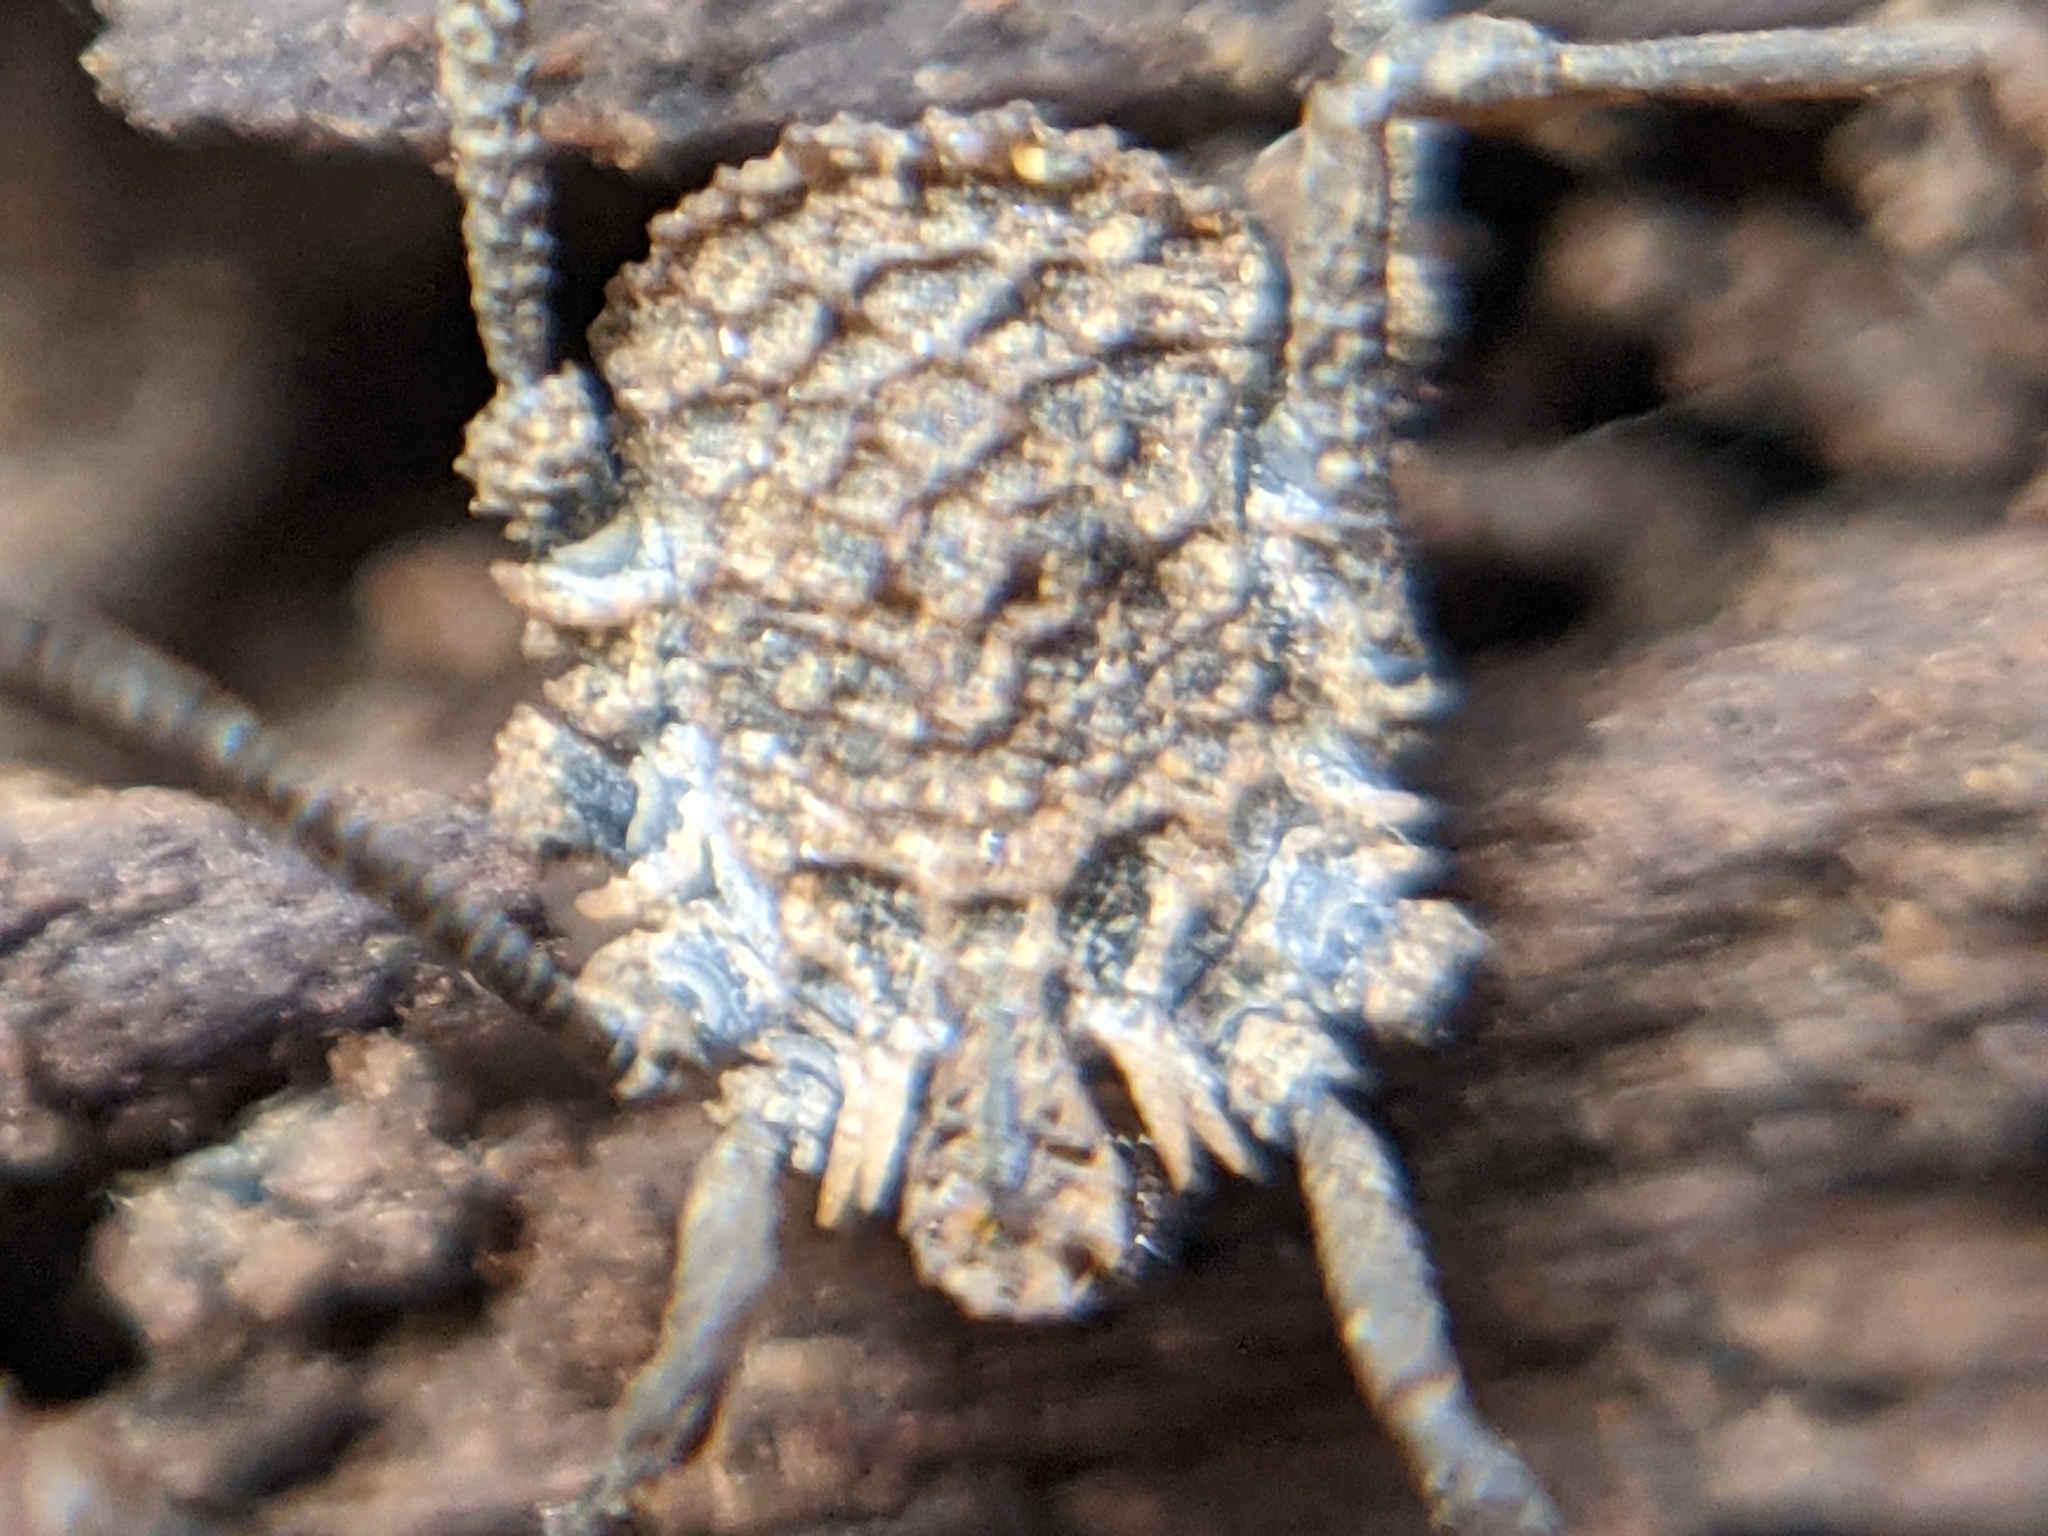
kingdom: Animalia
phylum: Arthropoda
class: Arachnida
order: Opiliones
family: Nemastomatidae
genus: Ortholasma
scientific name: Ortholasma rugosum
